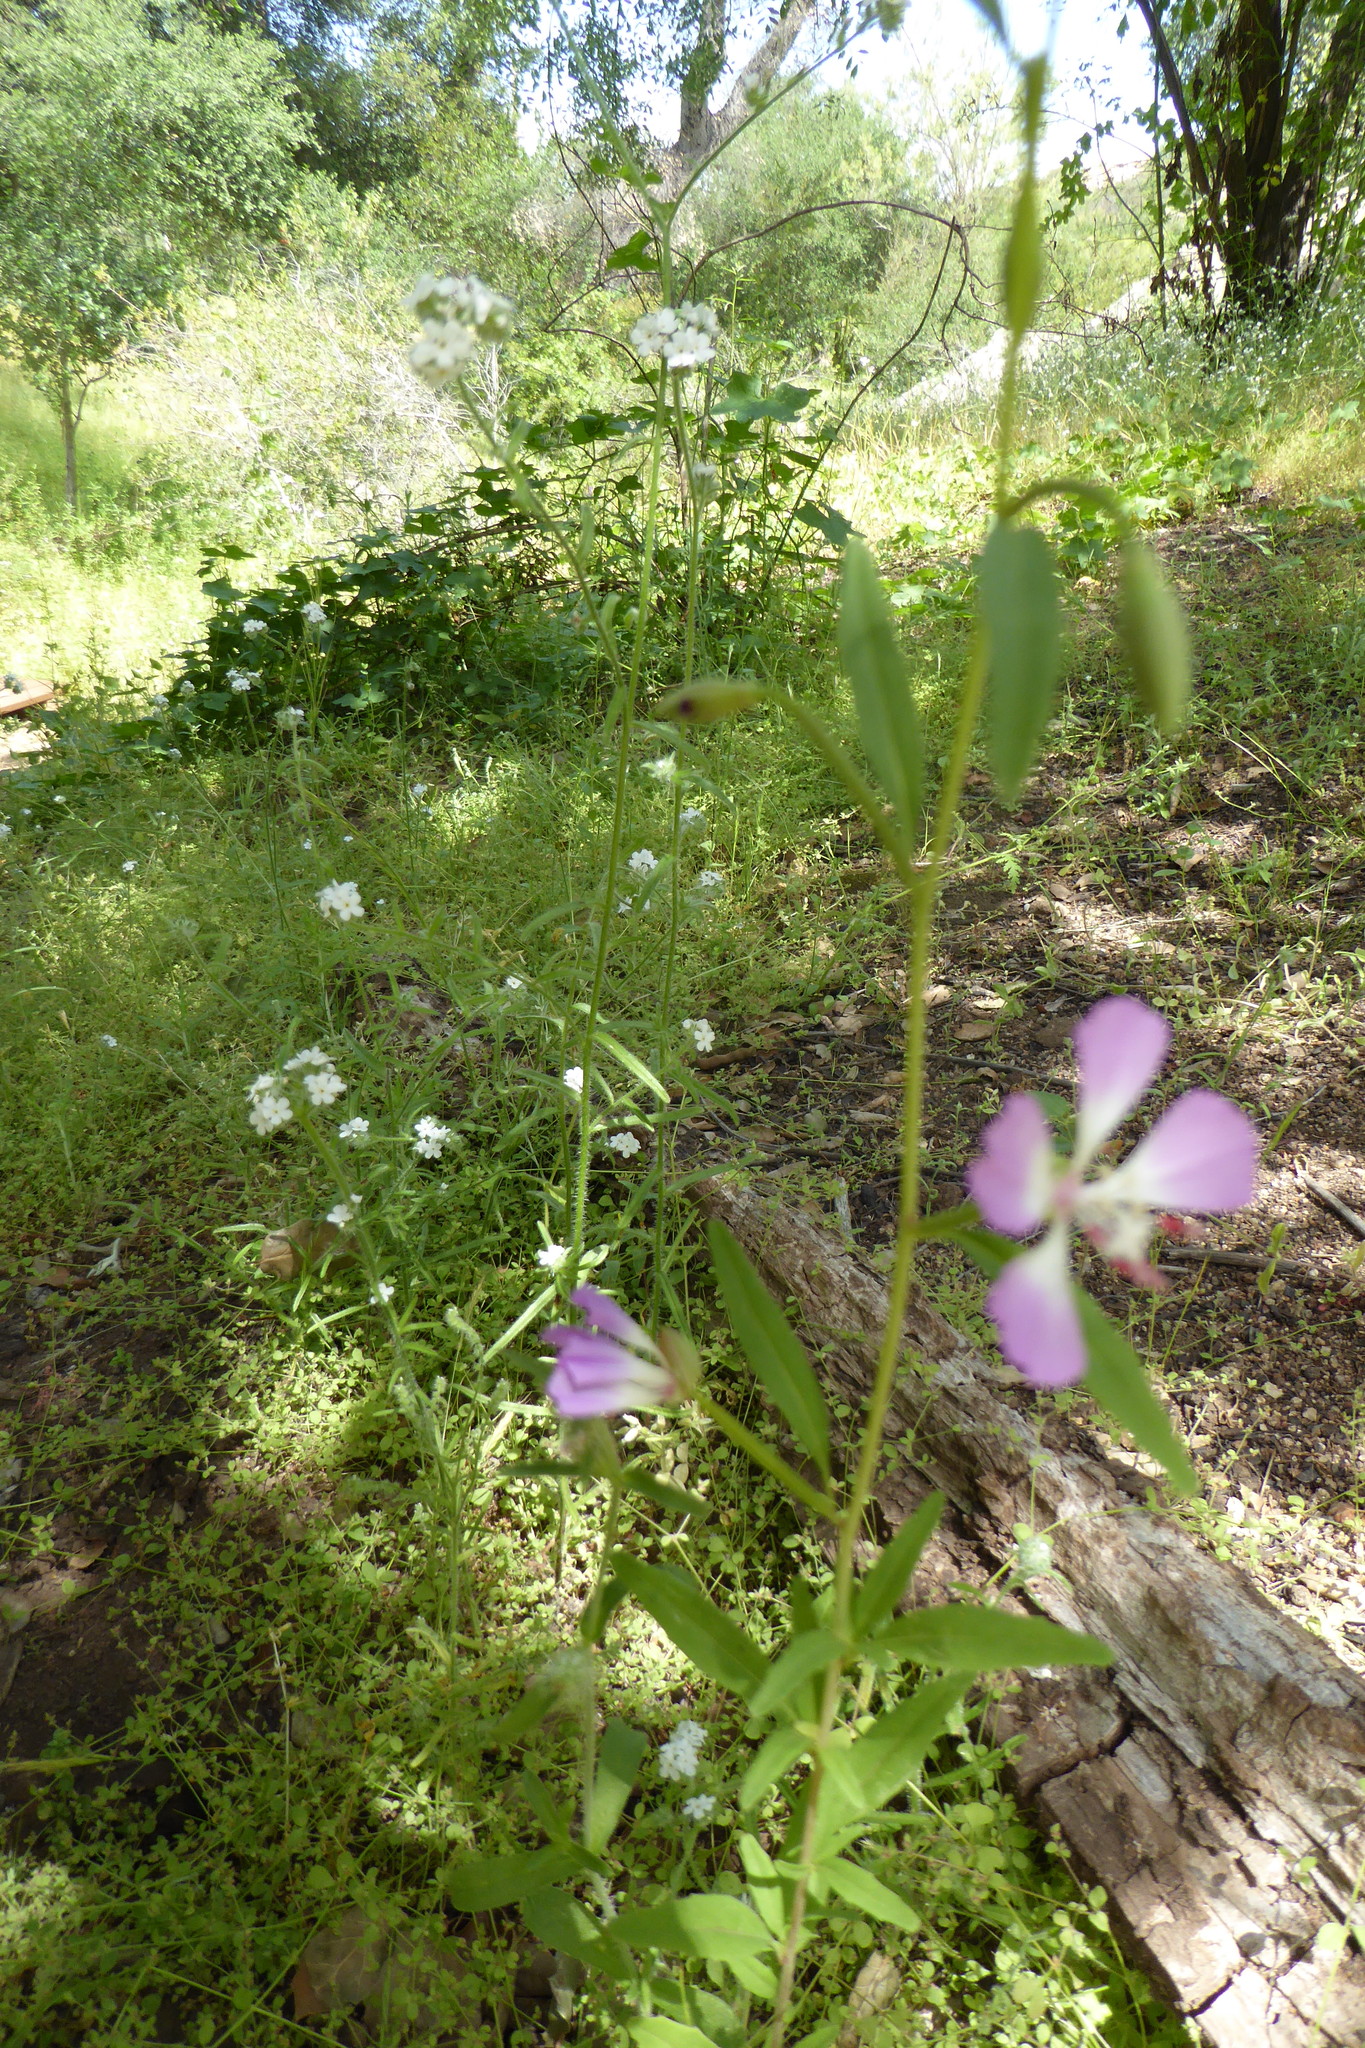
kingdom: Plantae
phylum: Tracheophyta
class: Magnoliopsida
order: Myrtales
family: Onagraceae
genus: Clarkia
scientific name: Clarkia delicata
